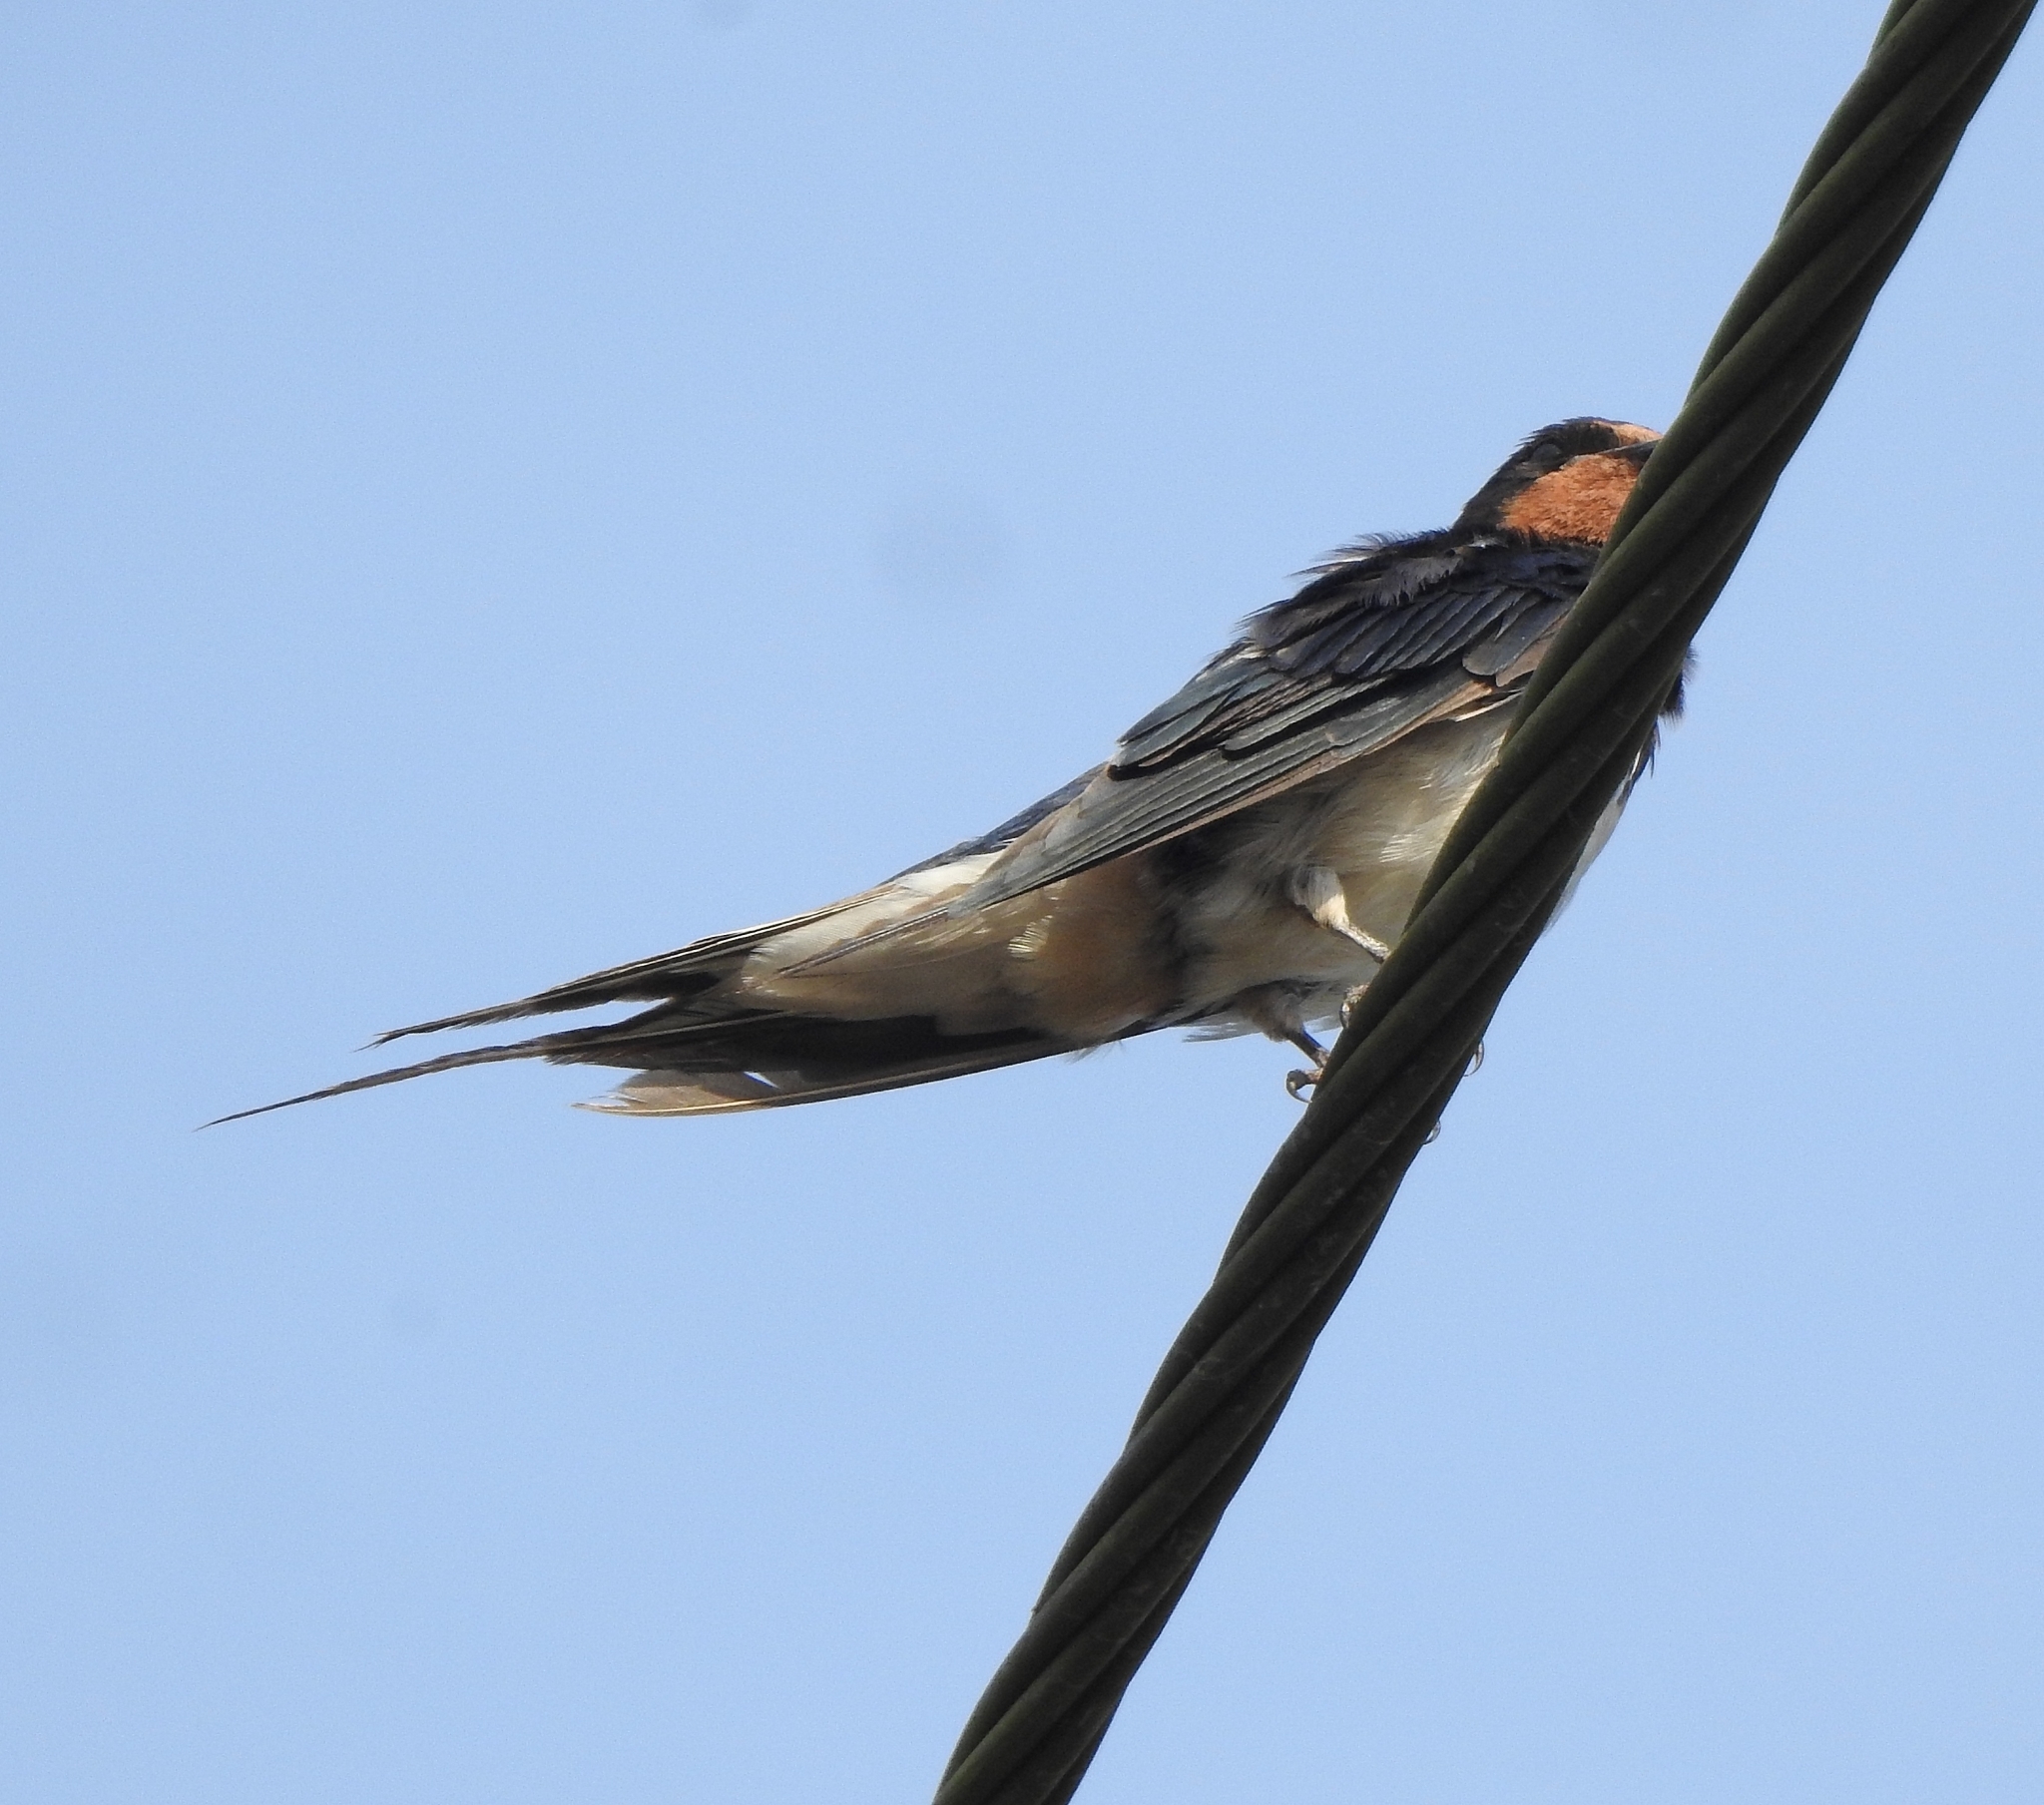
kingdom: Animalia
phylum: Chordata
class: Aves
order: Passeriformes
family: Hirundinidae
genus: Hirundo
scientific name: Hirundo rustica
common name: Barn swallow
